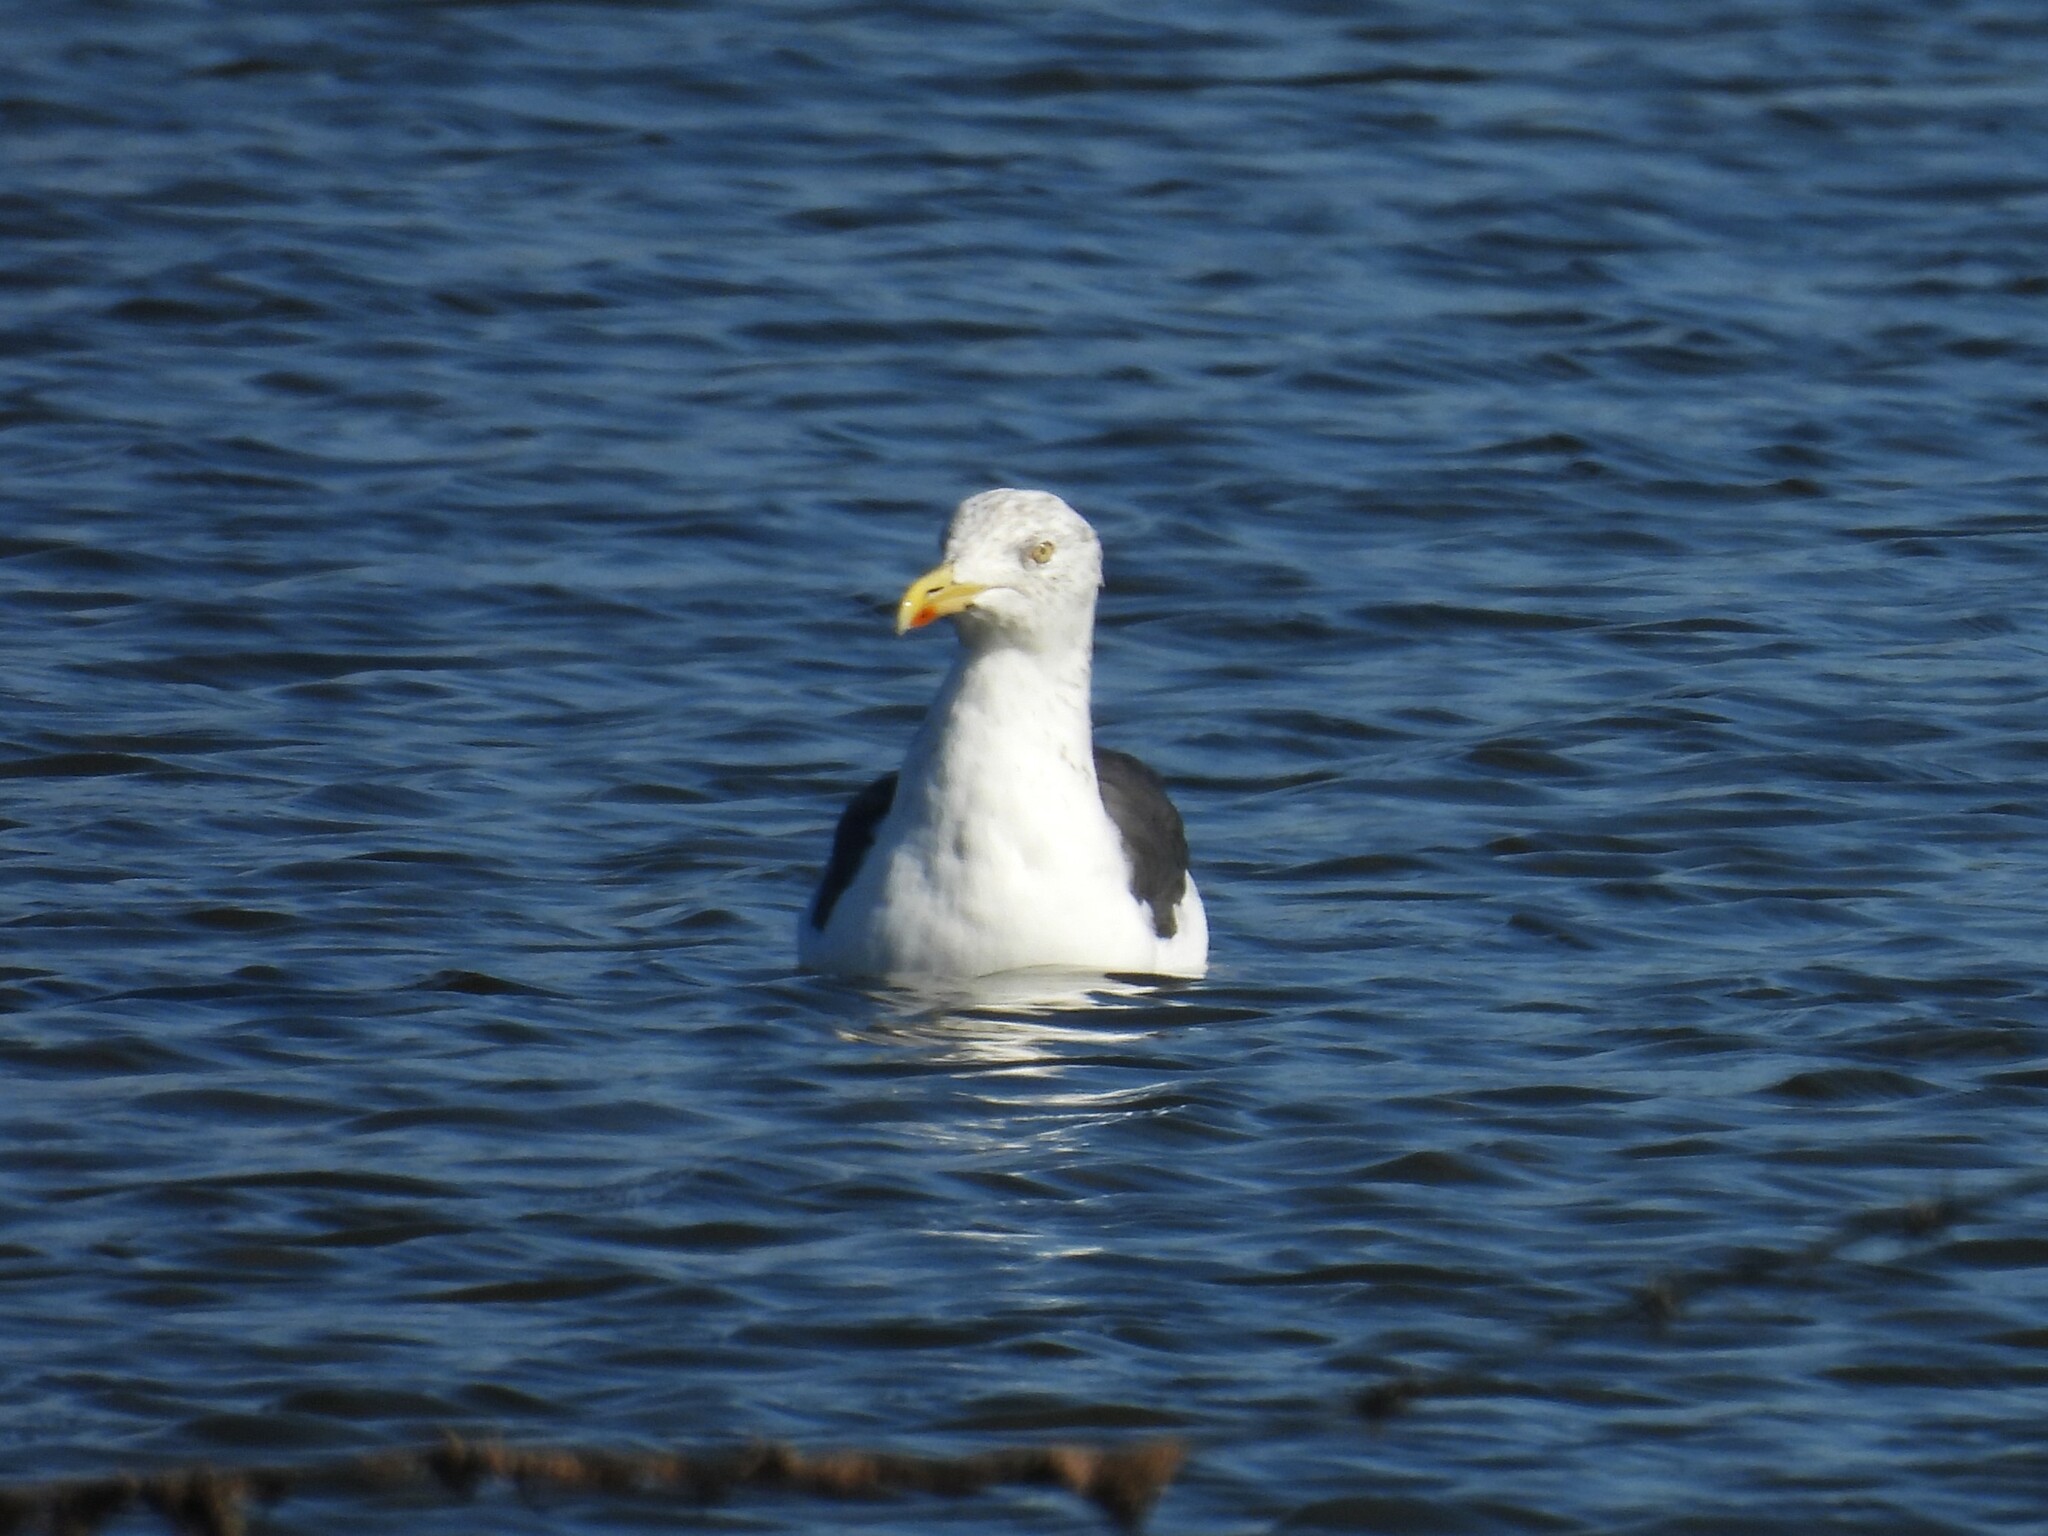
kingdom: Animalia
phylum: Chordata
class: Aves
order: Charadriiformes
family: Laridae
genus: Larus
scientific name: Larus fuscus
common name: Lesser black-backed gull
